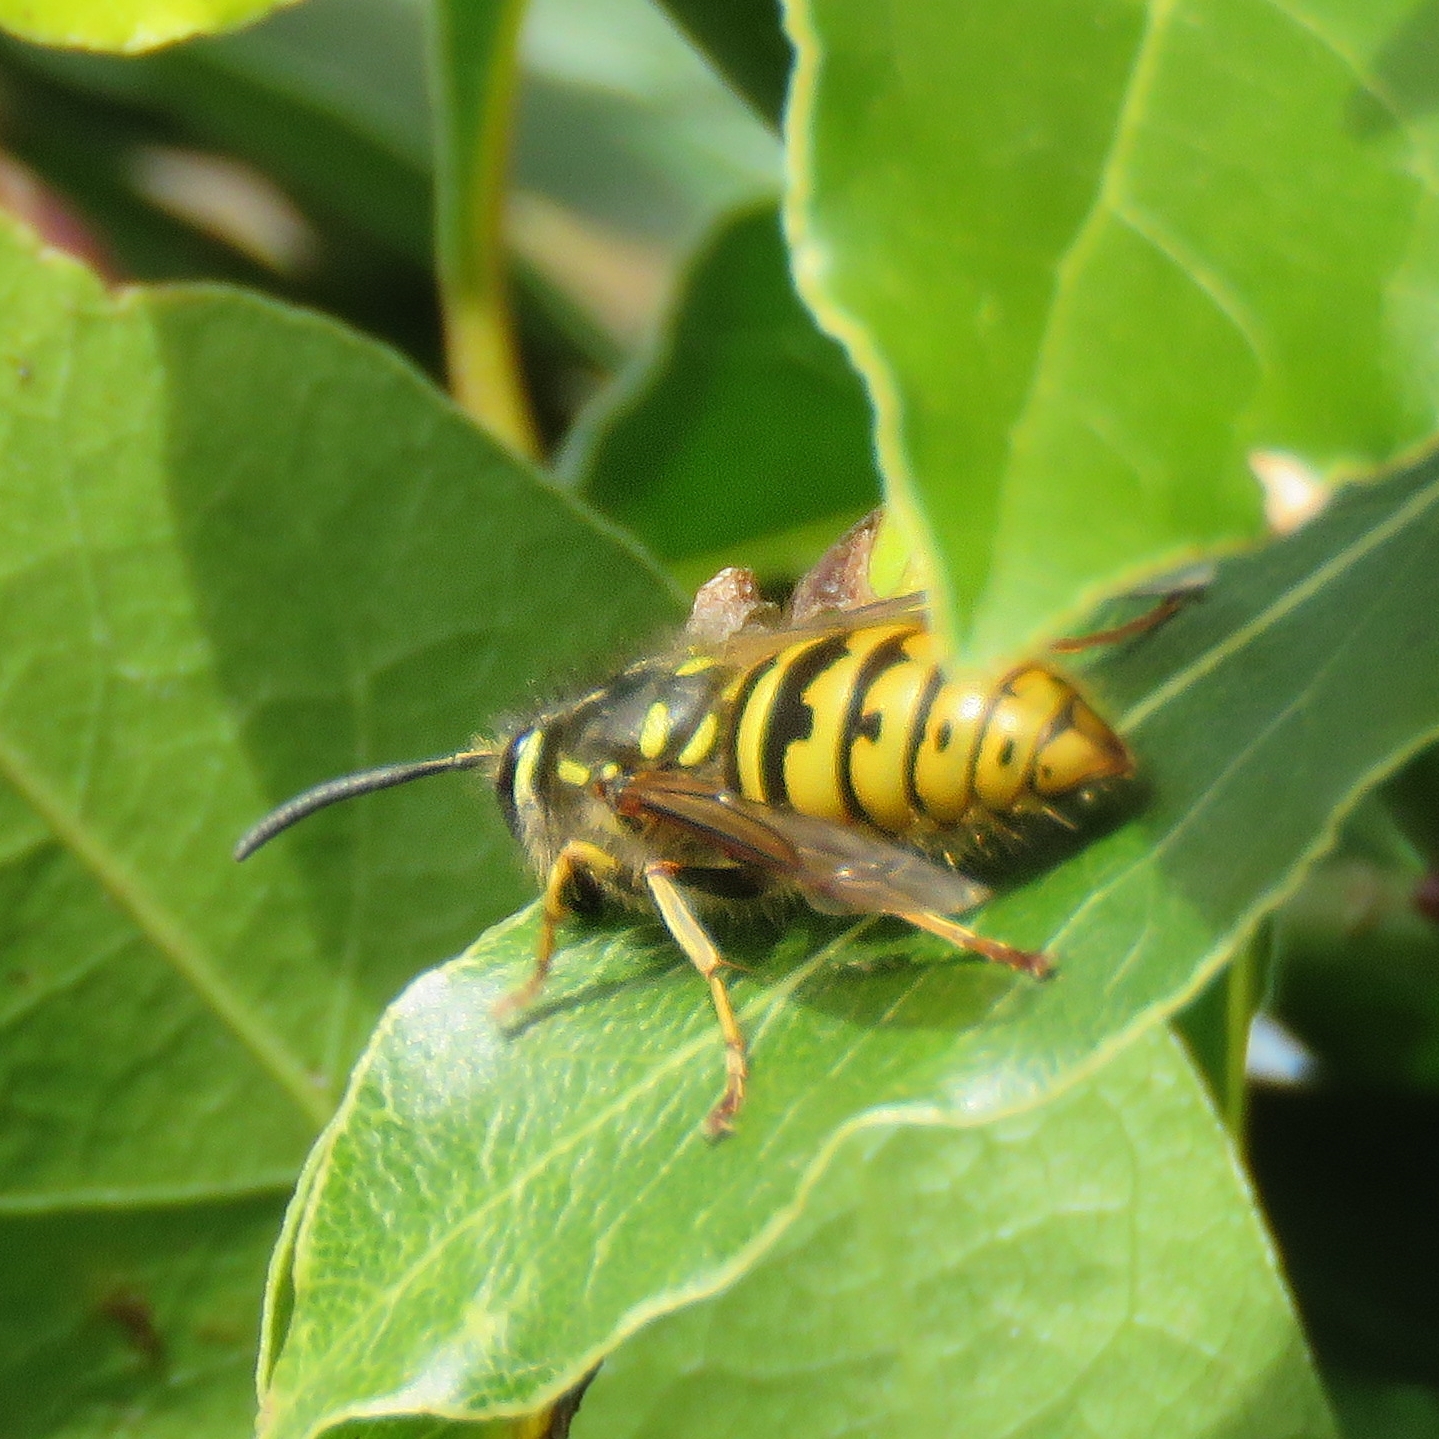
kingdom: Animalia
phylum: Arthropoda
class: Insecta
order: Hymenoptera
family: Vespidae
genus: Vespula
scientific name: Vespula vulgaris
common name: Common wasp
